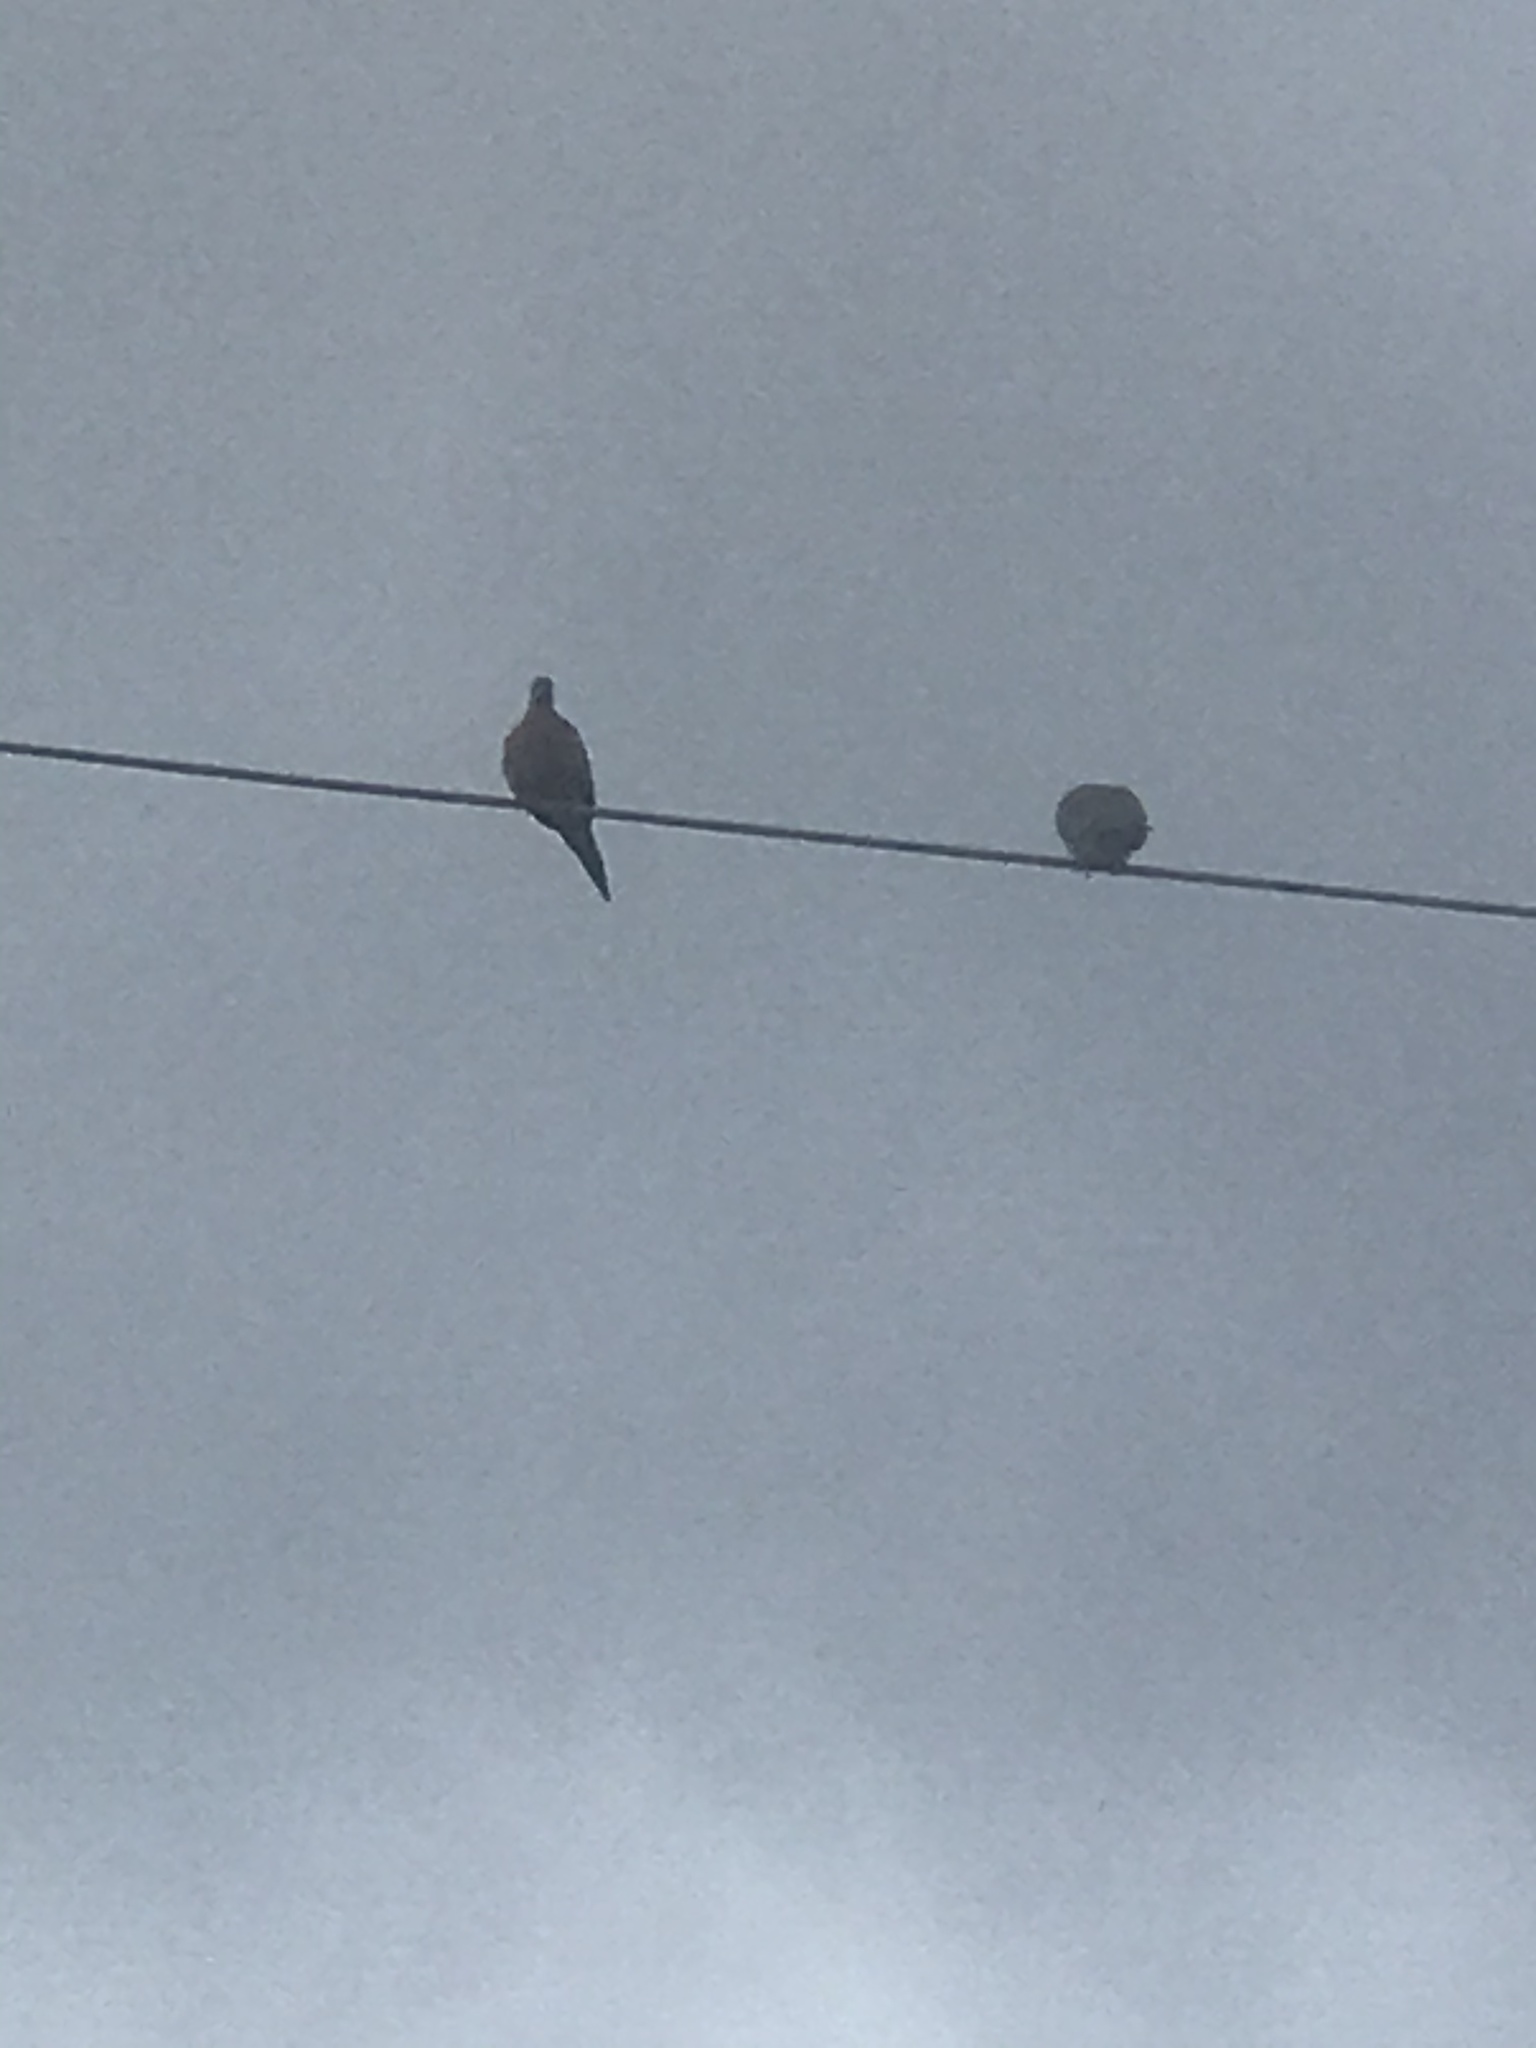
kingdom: Animalia
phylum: Chordata
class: Aves
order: Columbiformes
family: Columbidae
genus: Zenaida
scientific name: Zenaida macroura
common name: Mourning dove
